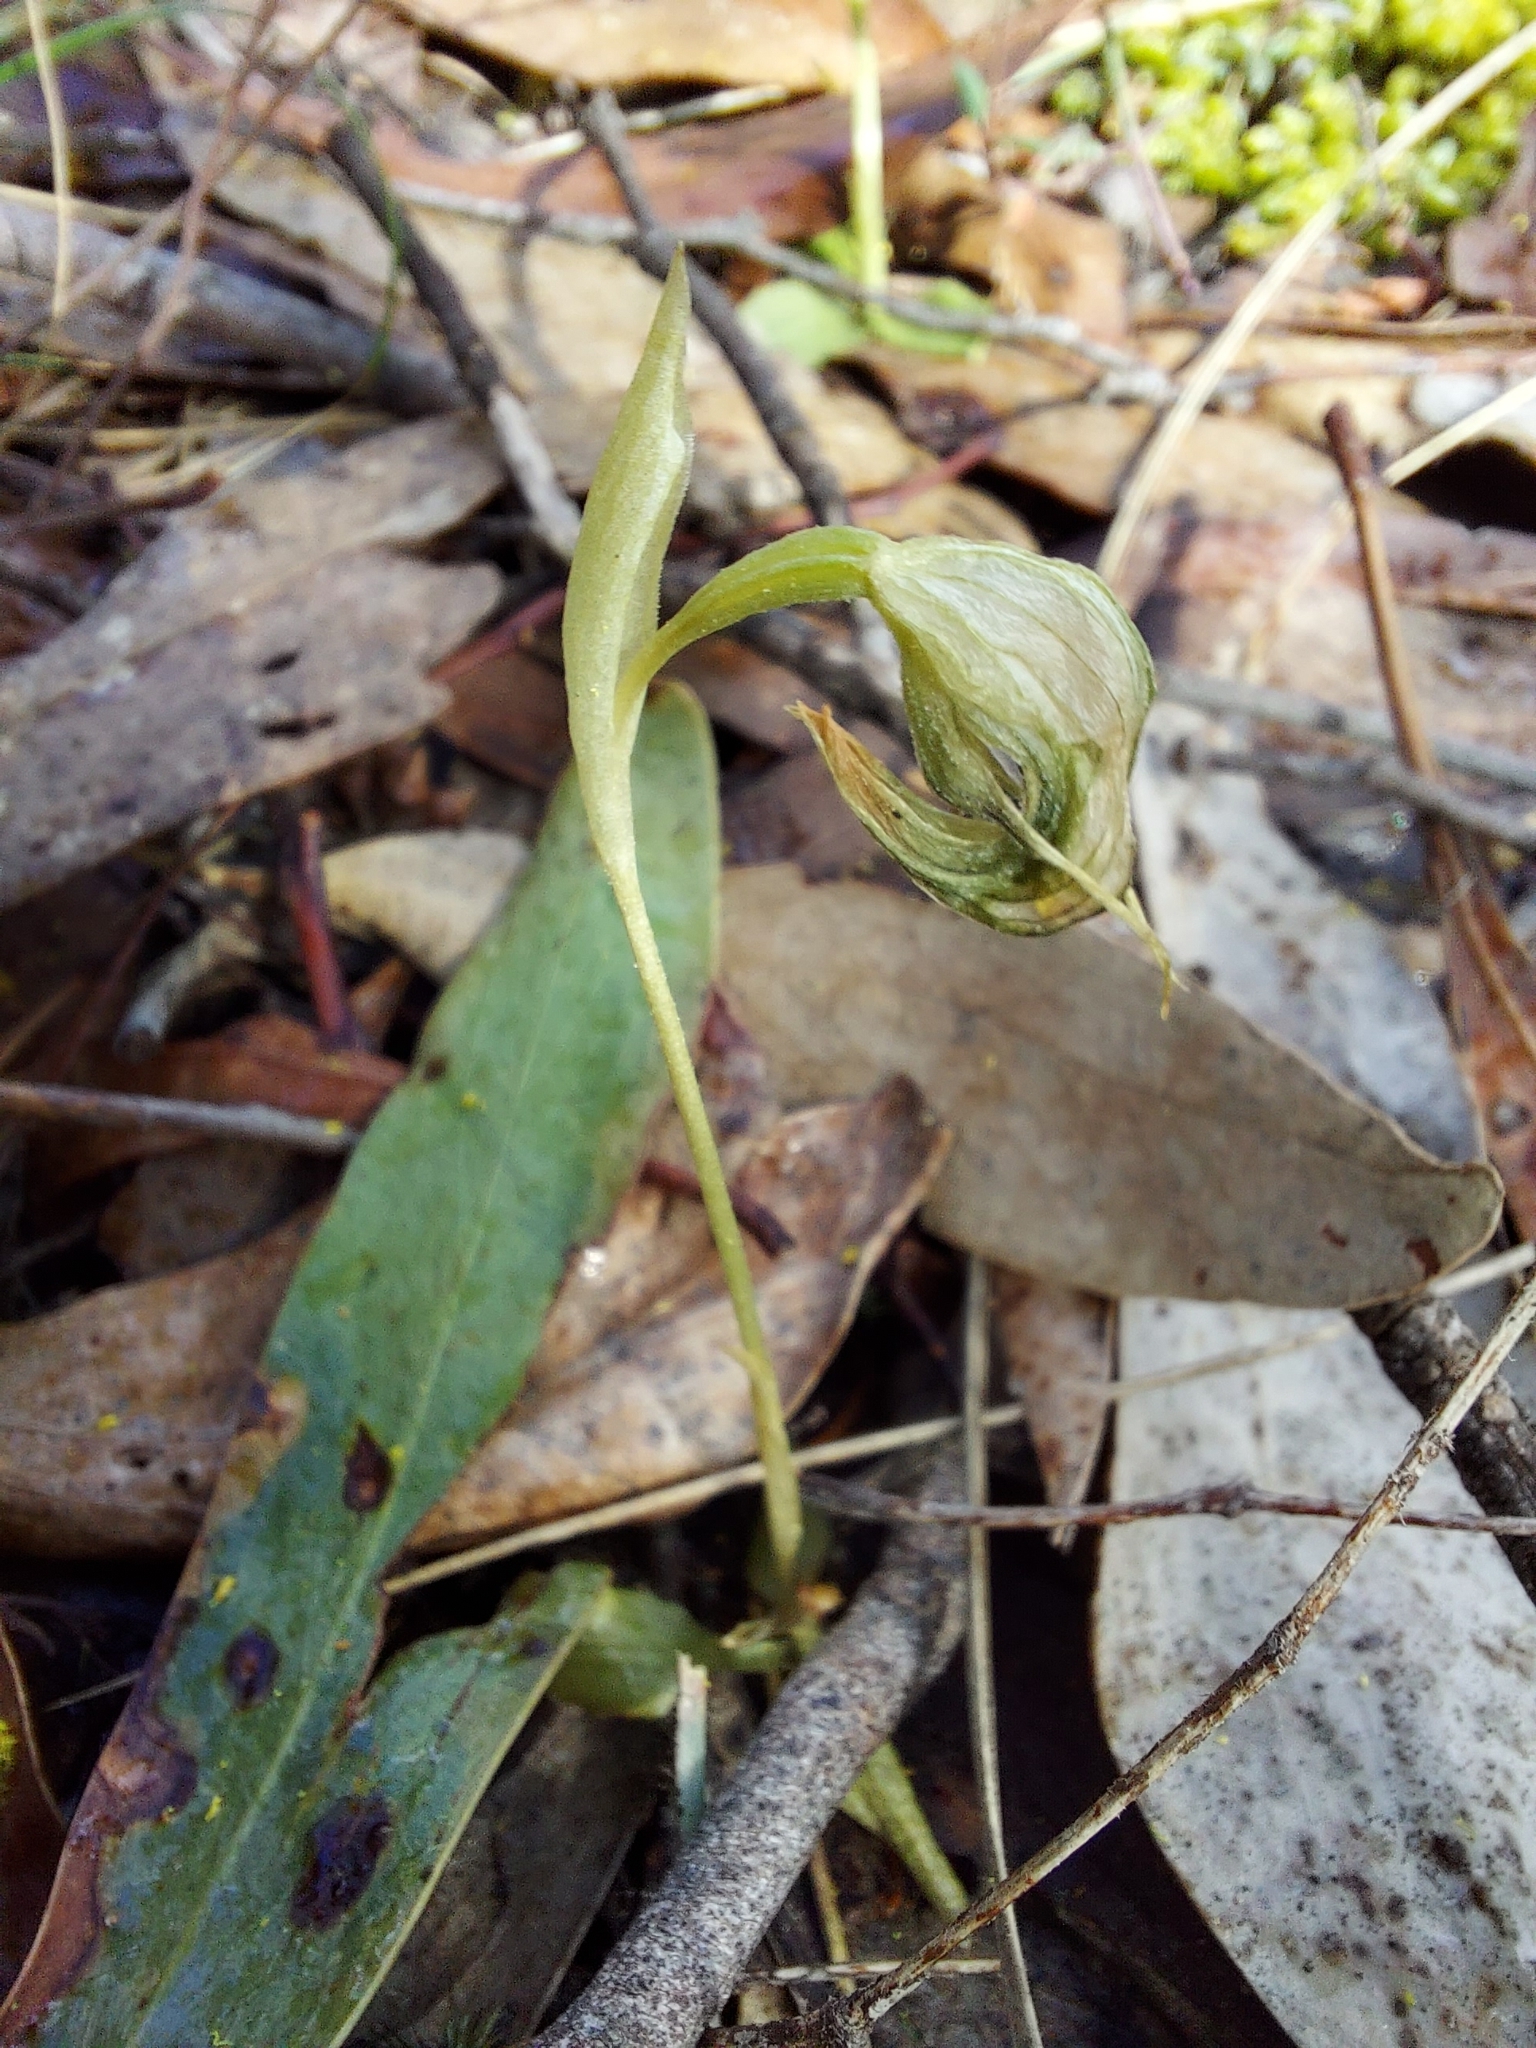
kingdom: Plantae
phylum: Tracheophyta
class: Liliopsida
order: Asparagales
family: Orchidaceae
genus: Pterostylis
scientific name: Pterostylis nutans
